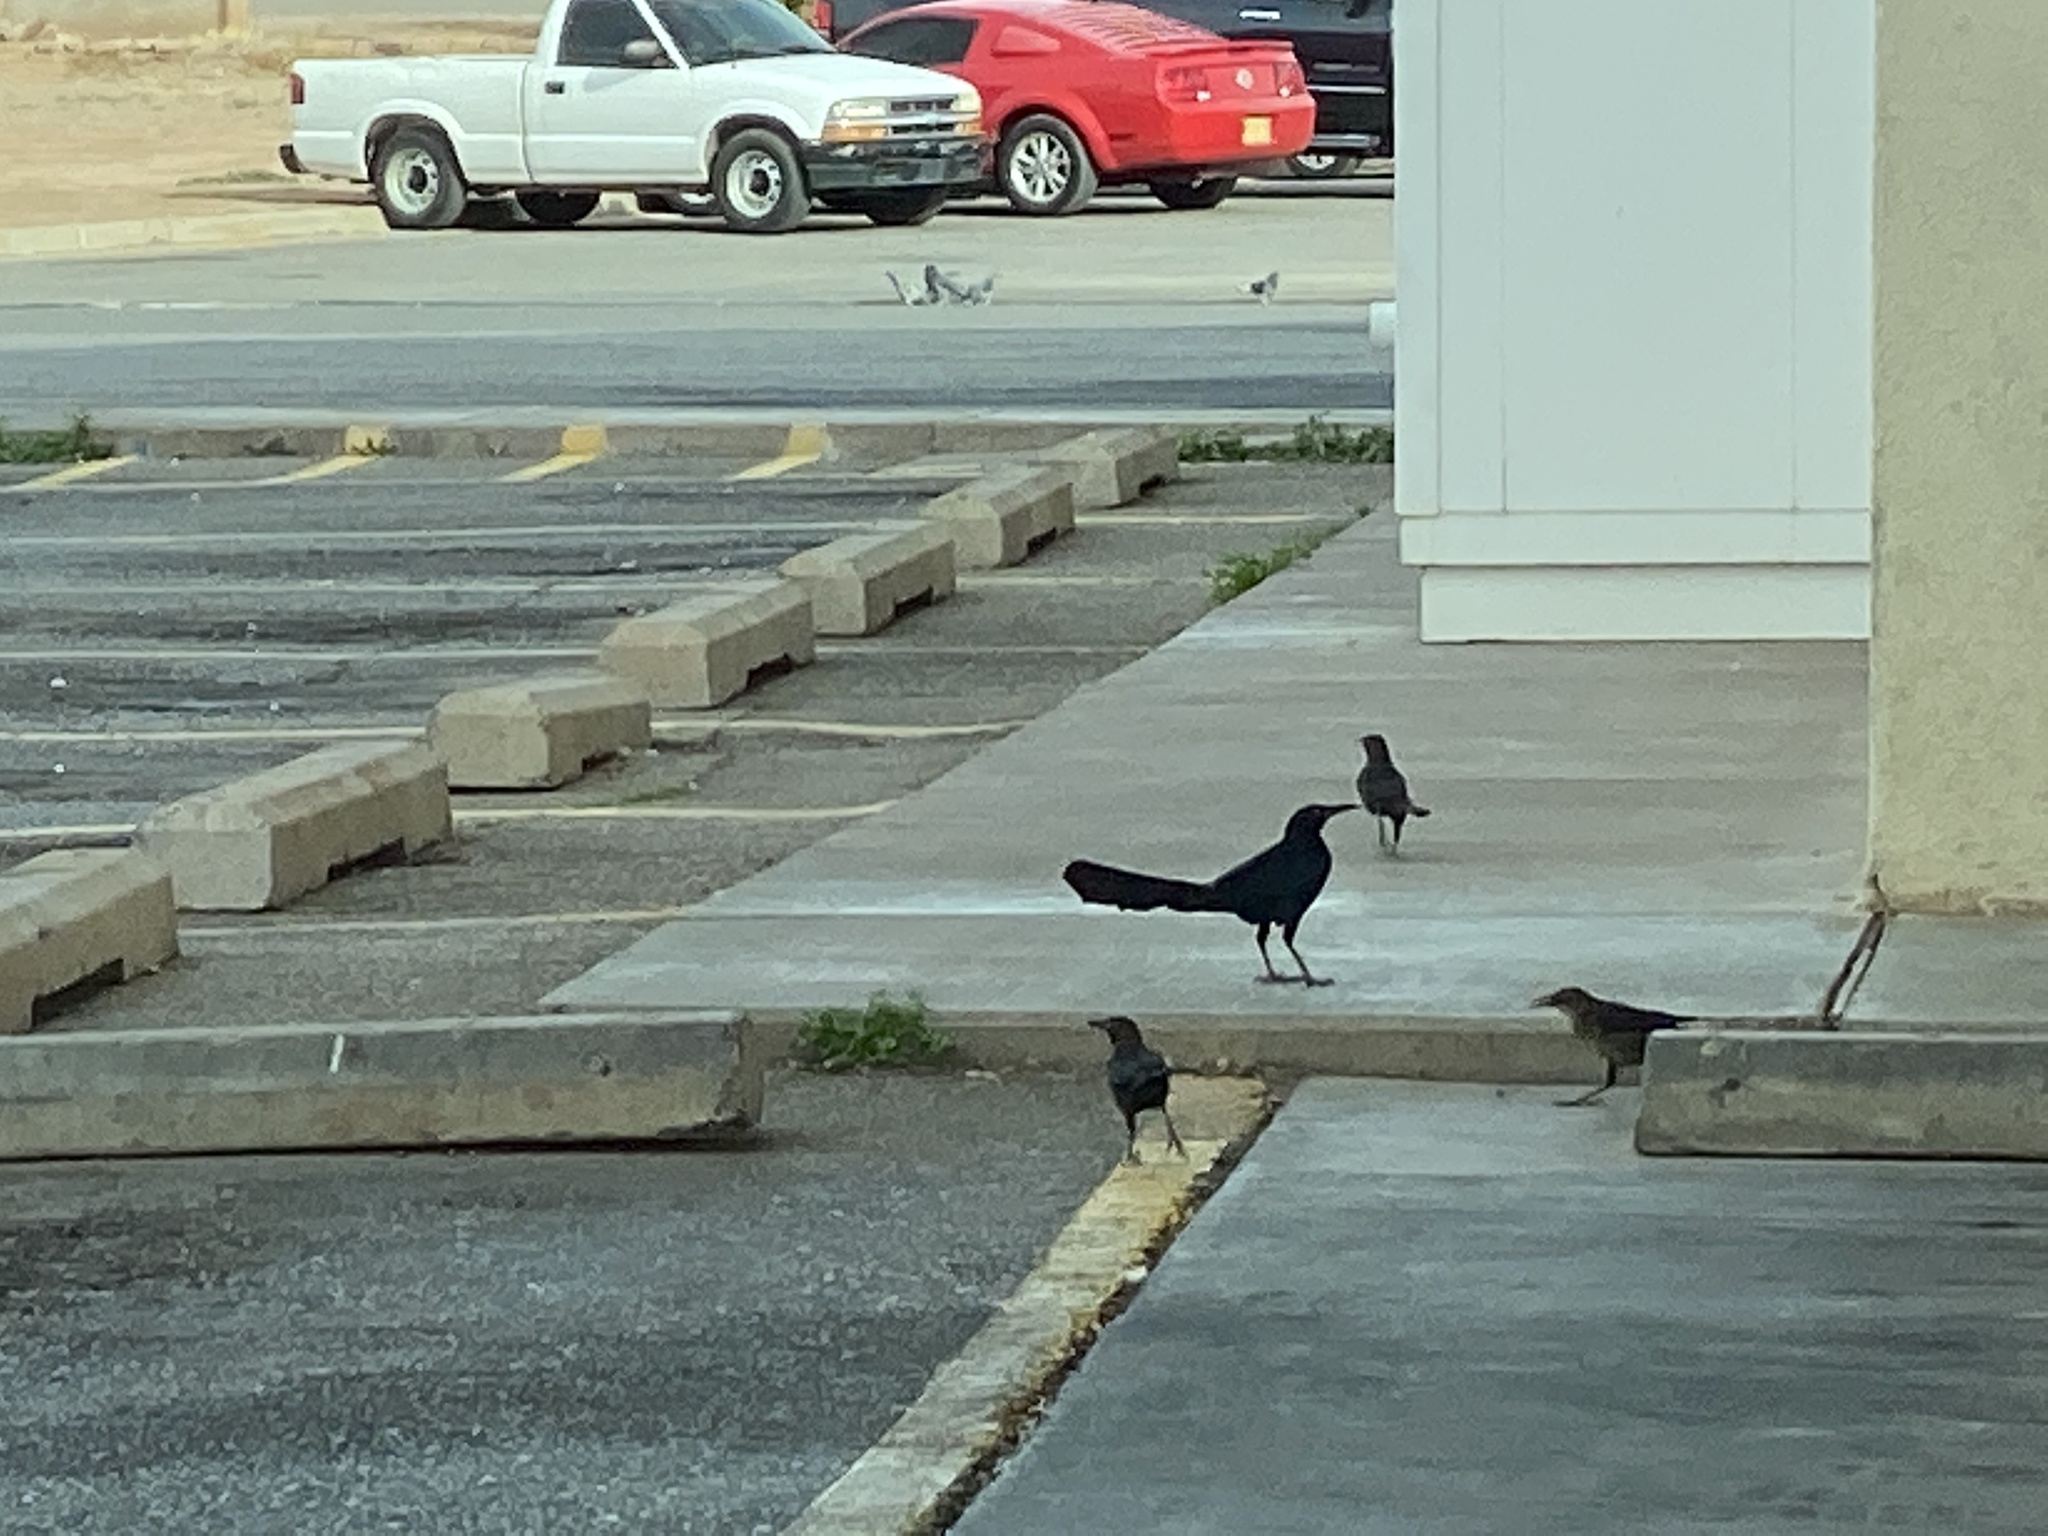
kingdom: Animalia
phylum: Chordata
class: Aves
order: Passeriformes
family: Icteridae
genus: Quiscalus
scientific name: Quiscalus mexicanus
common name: Great-tailed grackle
